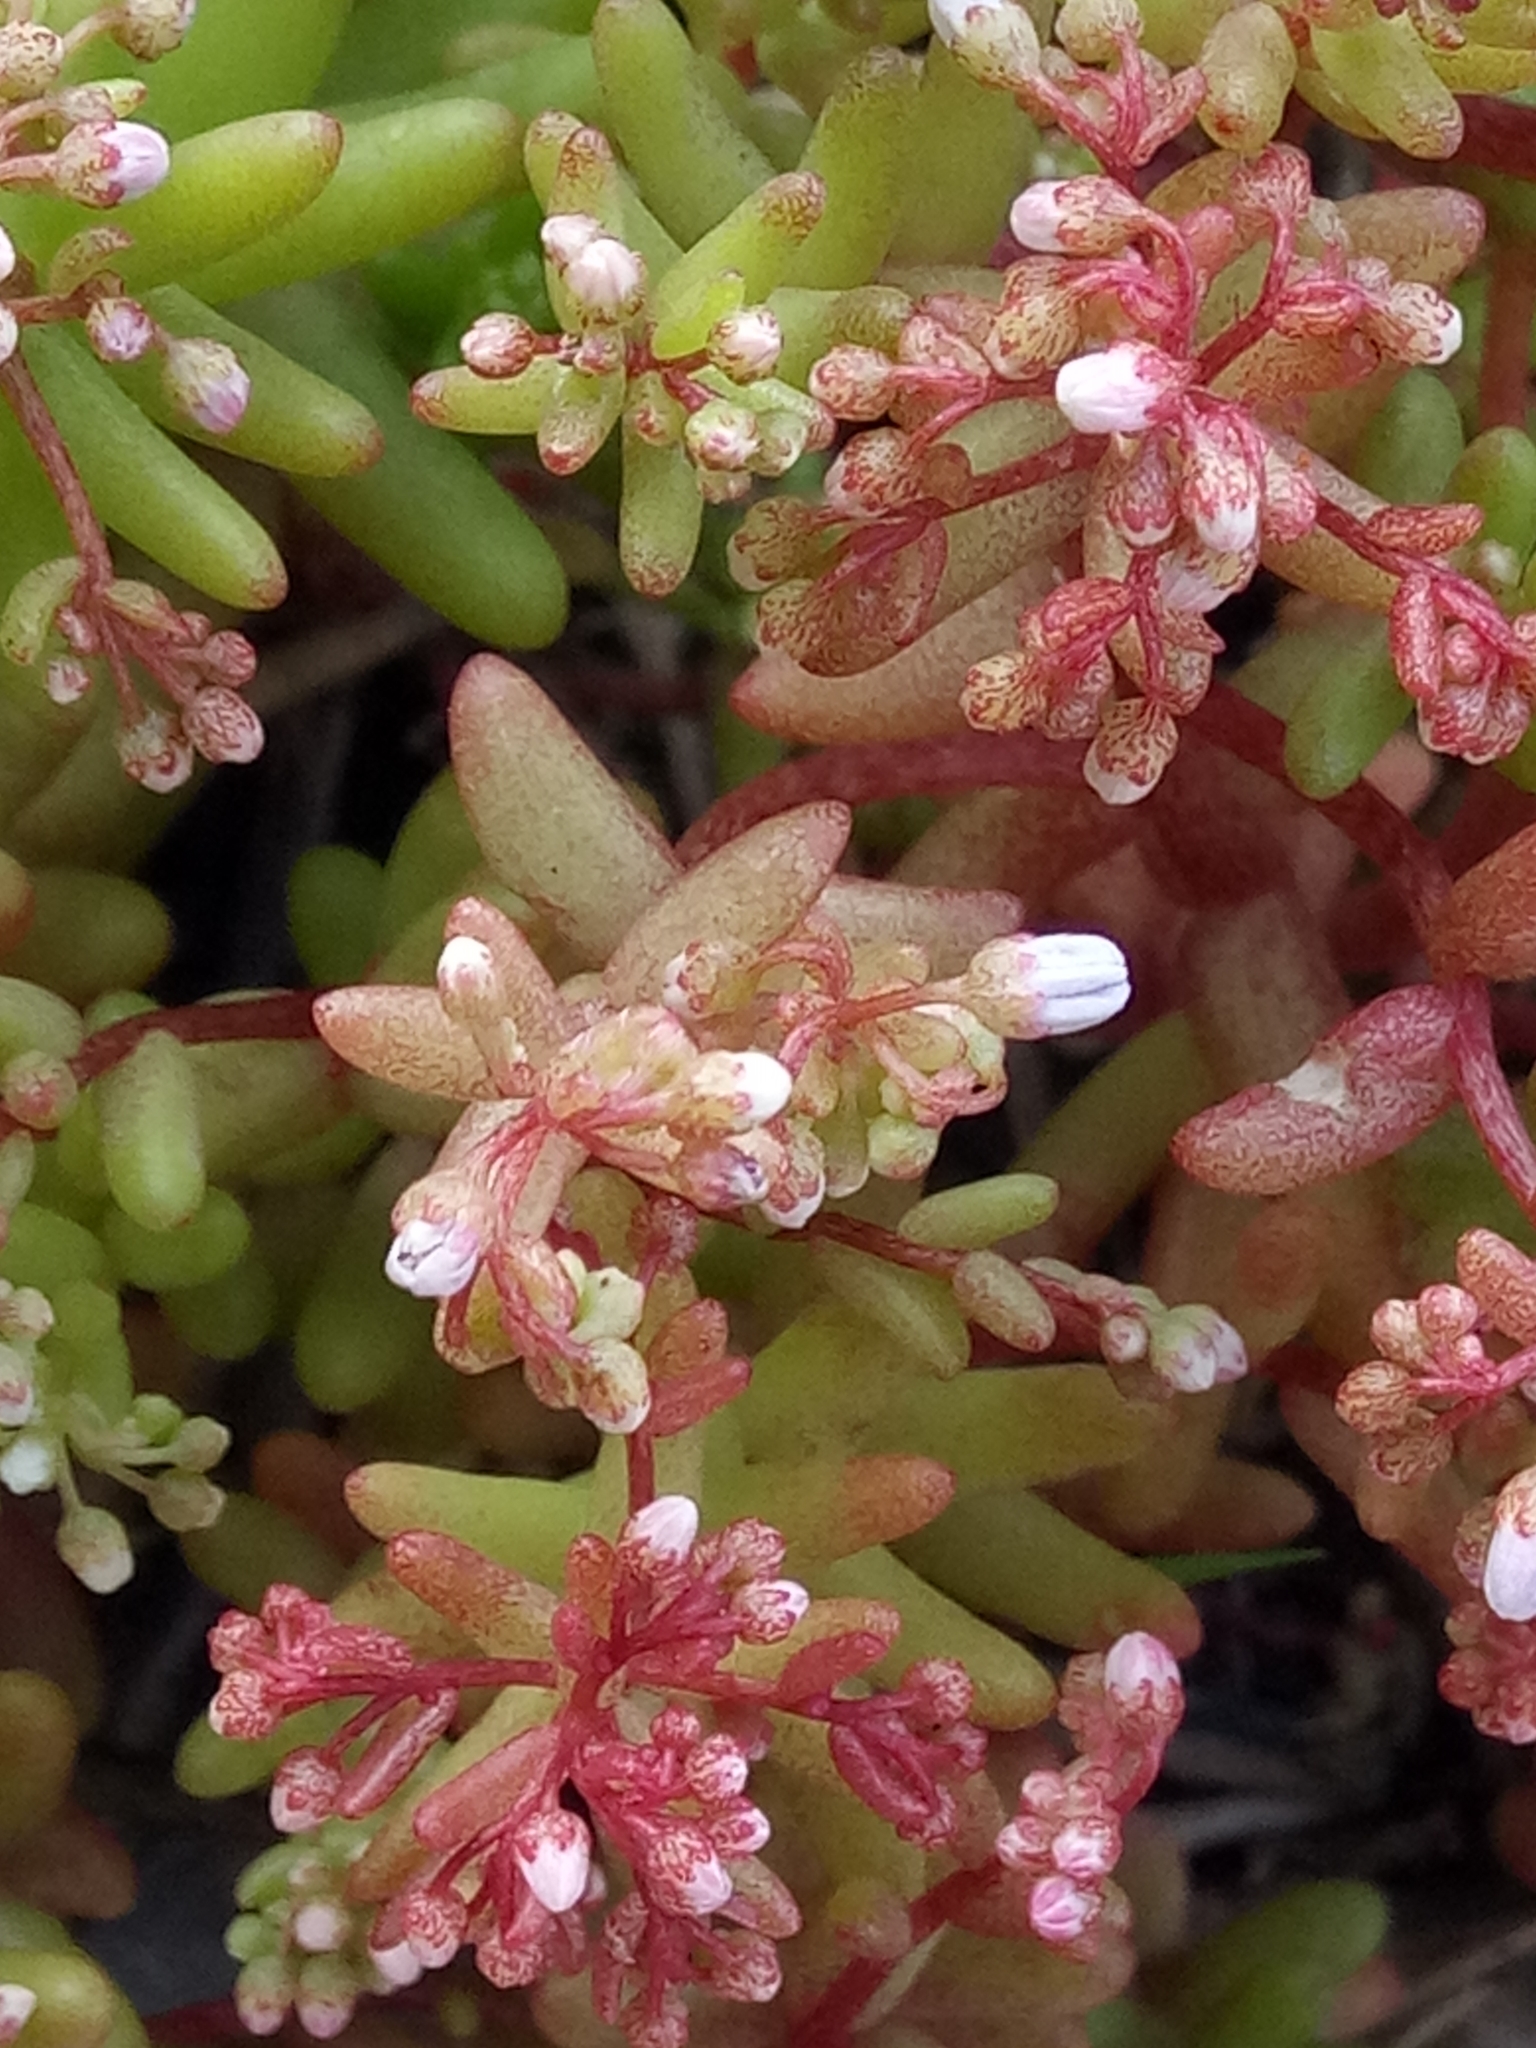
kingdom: Plantae
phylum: Tracheophyta
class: Magnoliopsida
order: Saxifragales
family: Crassulaceae
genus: Sedum
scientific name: Sedum caeruleum
